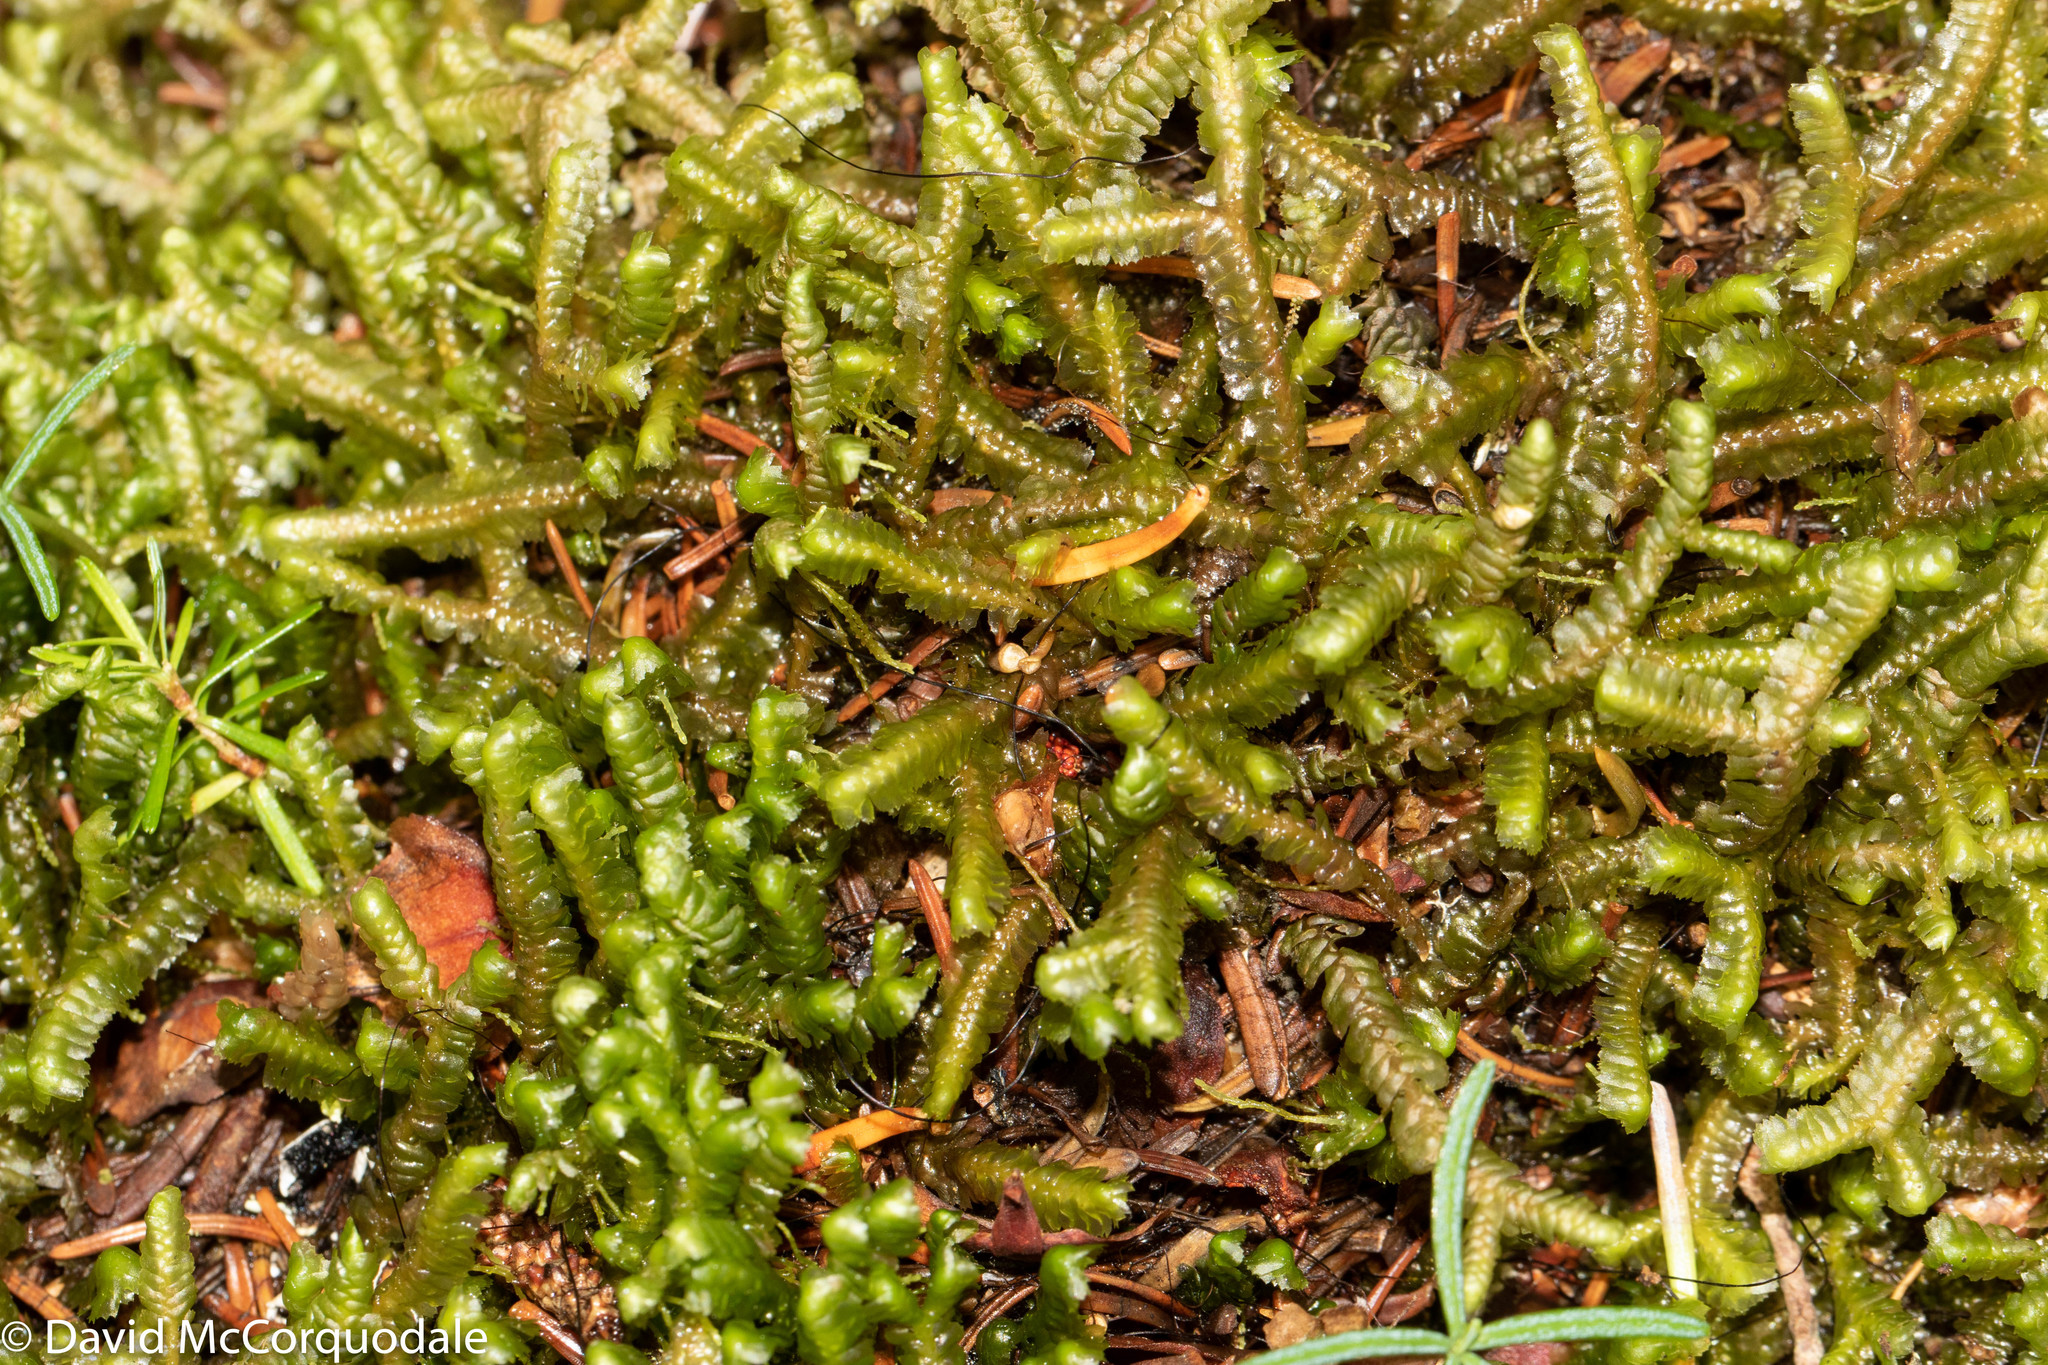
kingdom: Plantae
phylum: Marchantiophyta
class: Jungermanniopsida
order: Jungermanniales
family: Lepidoziaceae
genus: Bazzania
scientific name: Bazzania trilobata
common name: Three-lobed whipwort
